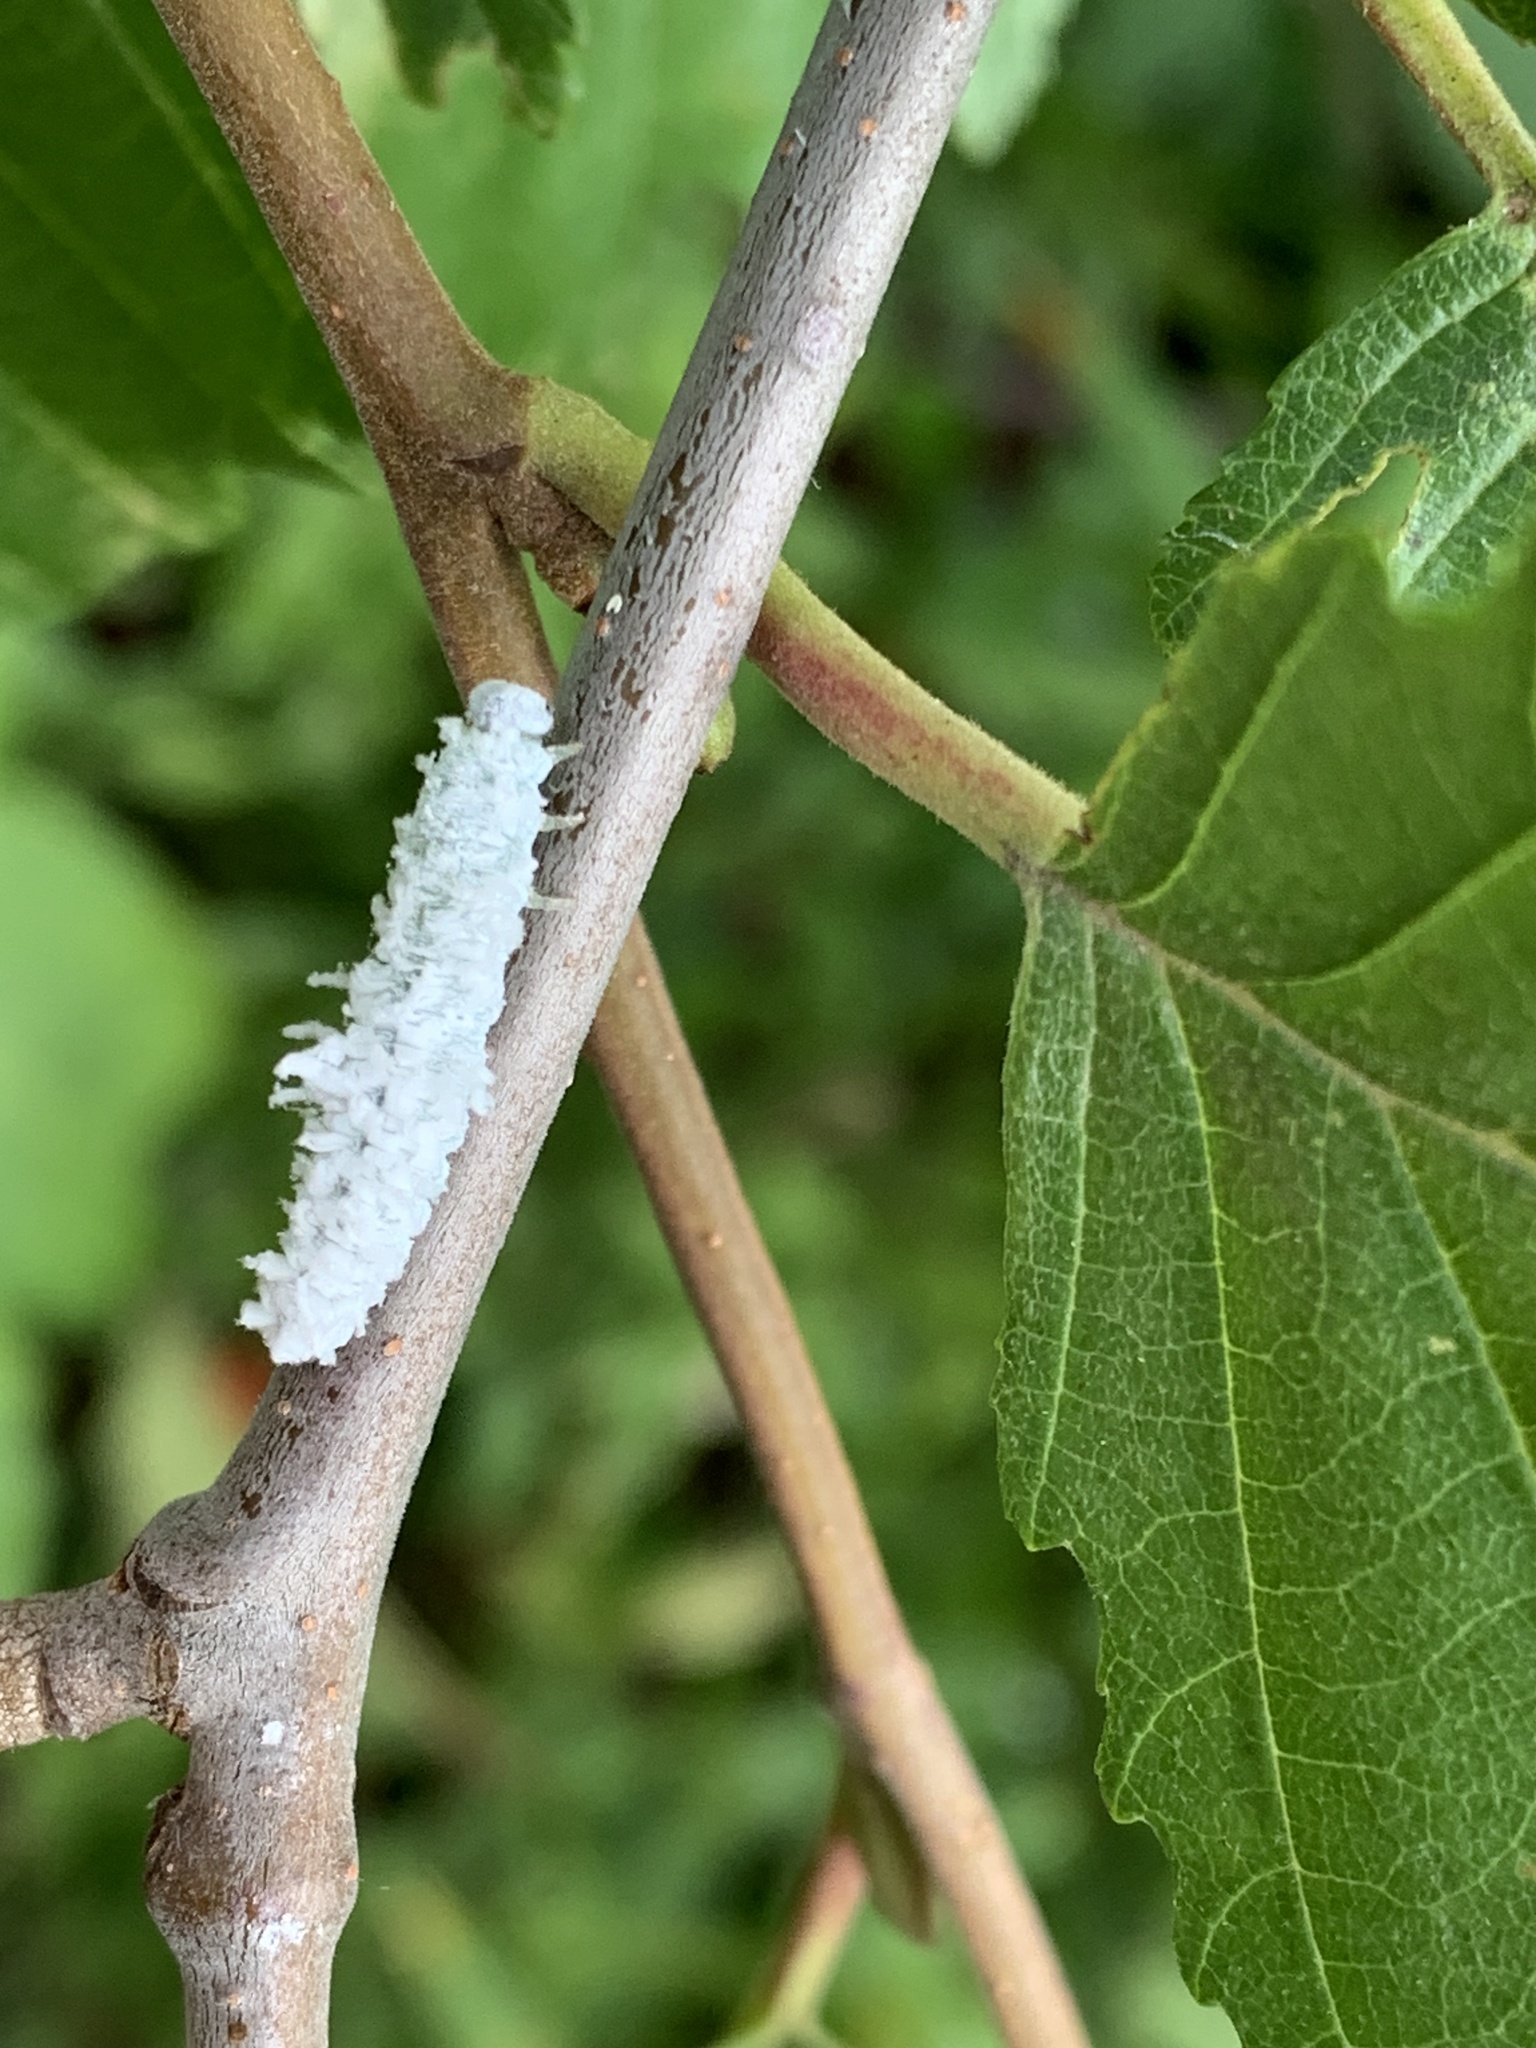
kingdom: Animalia
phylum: Arthropoda
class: Insecta
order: Hymenoptera
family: Tenthredinidae
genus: Eriocampa
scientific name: Eriocampa ovata
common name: Alder wooly sawfly
